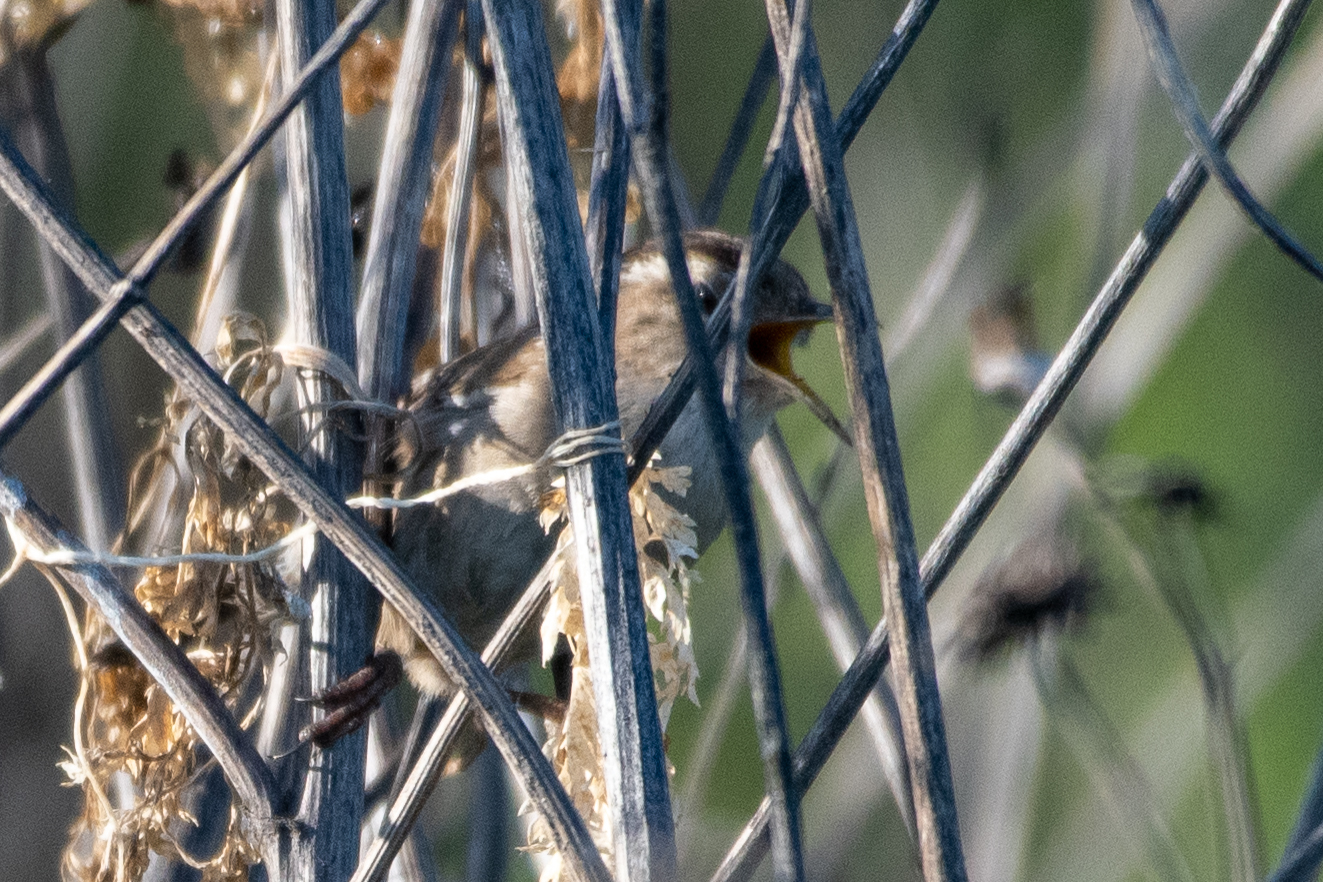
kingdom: Animalia
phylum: Chordata
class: Aves
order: Passeriformes
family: Troglodytidae
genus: Cistothorus
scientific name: Cistothorus palustris
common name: Marsh wren
